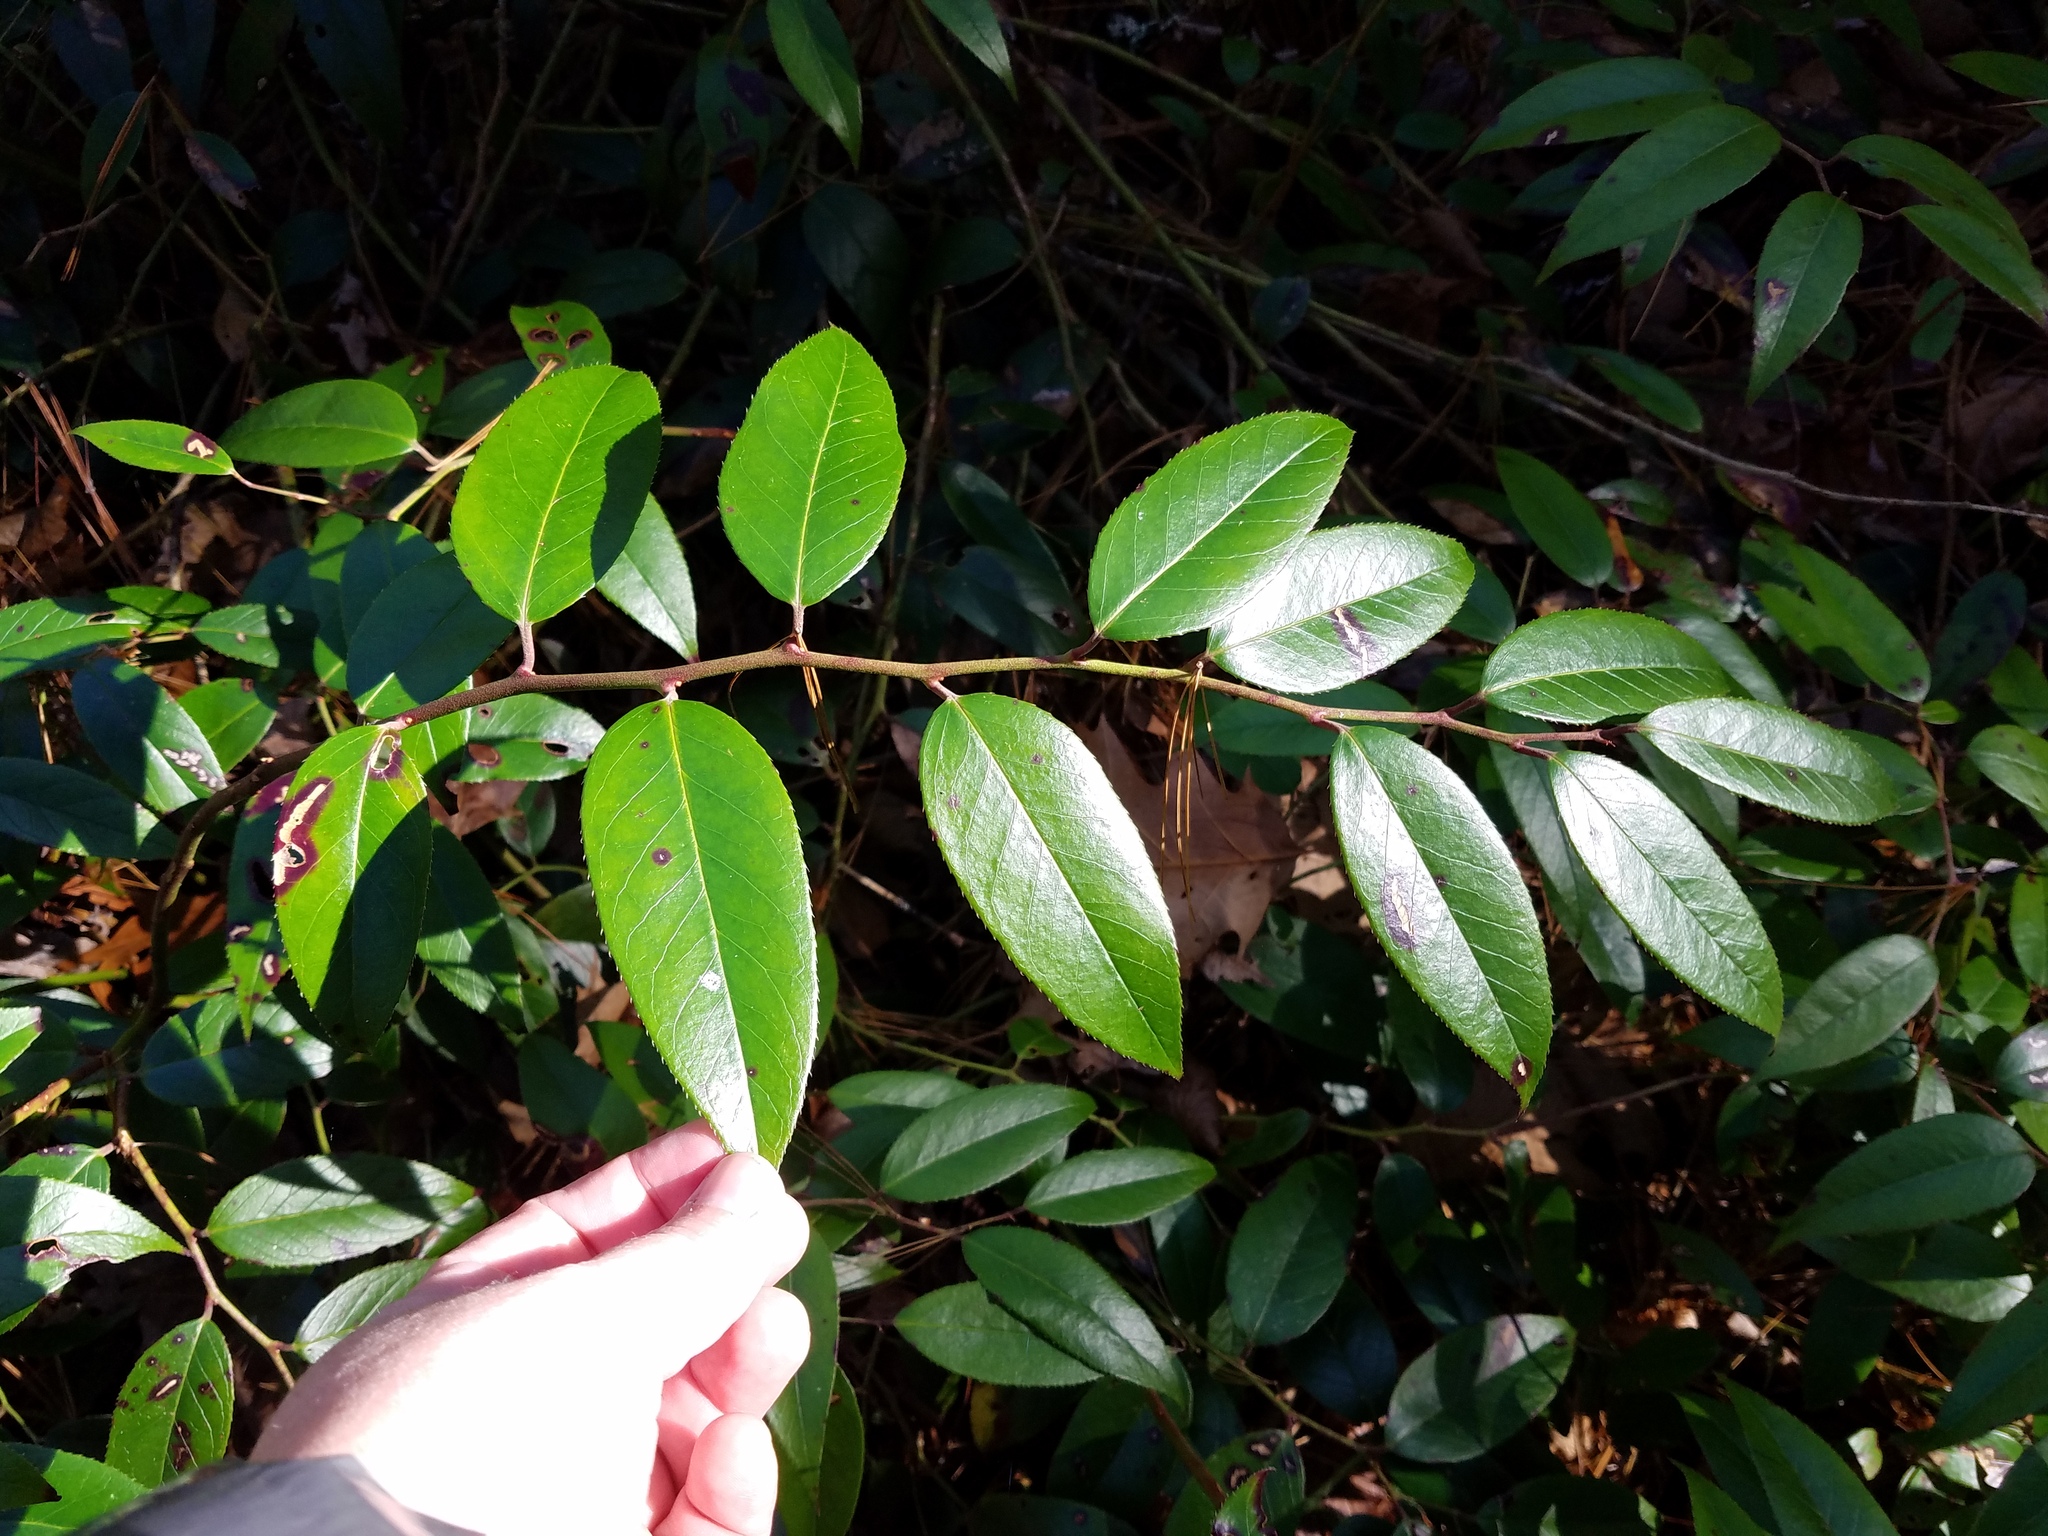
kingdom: Plantae
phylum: Tracheophyta
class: Magnoliopsida
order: Ericales
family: Ericaceae
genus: Leucothoe
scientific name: Leucothoe fontanesiana
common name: Fetterbush
